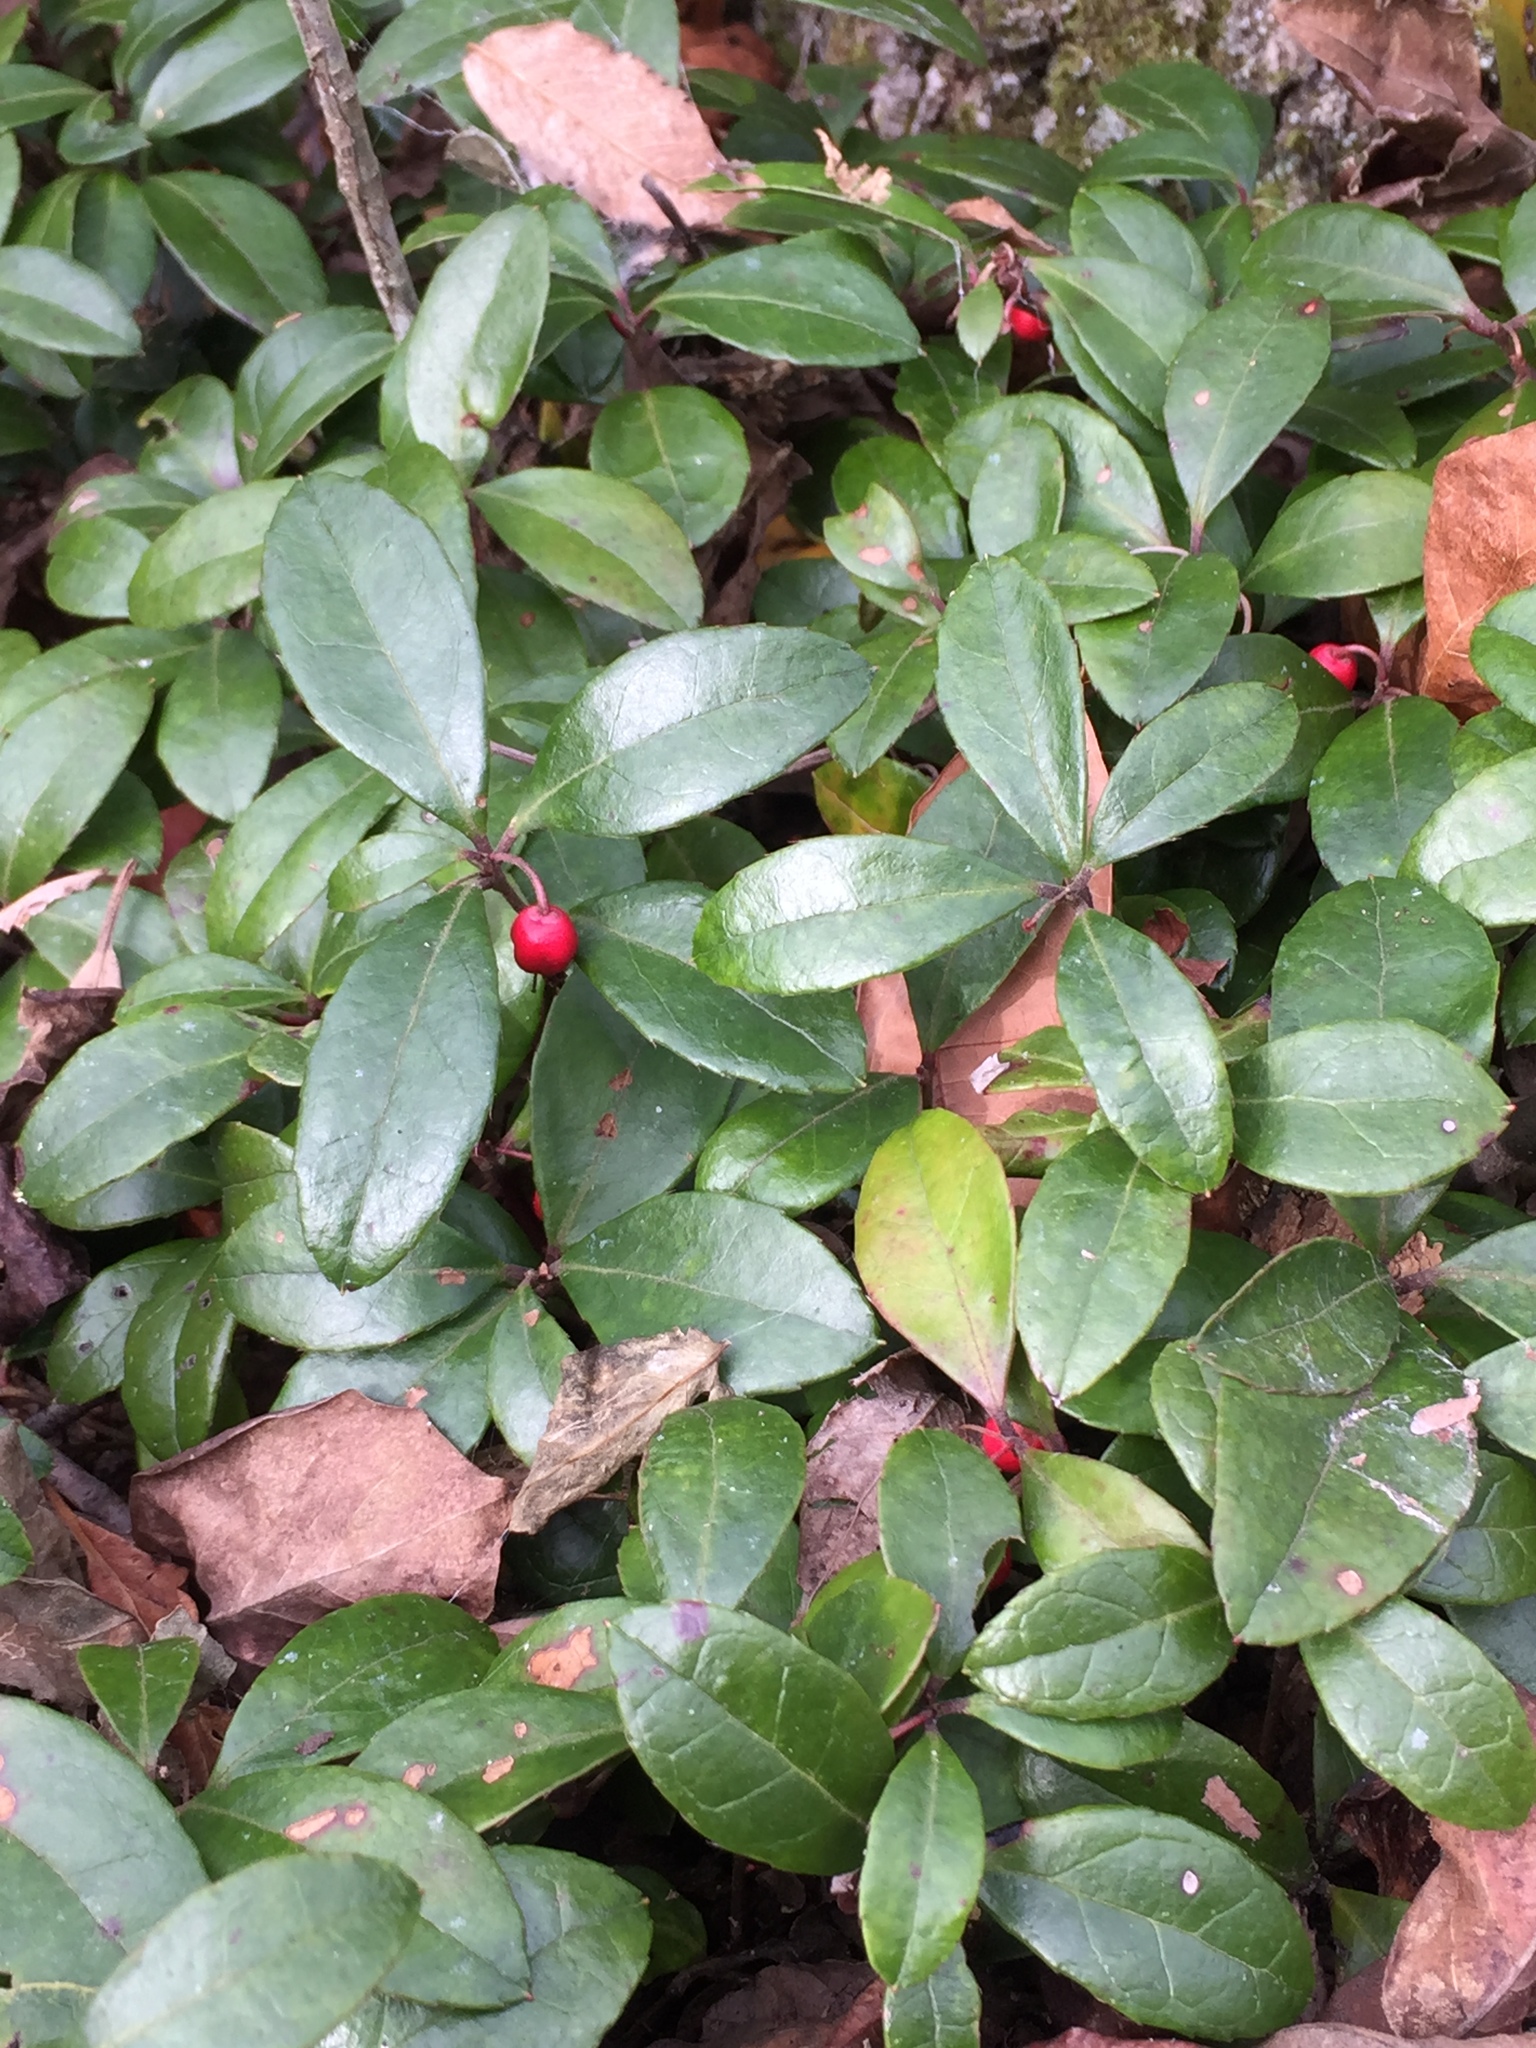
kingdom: Plantae
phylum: Tracheophyta
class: Magnoliopsida
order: Ericales
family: Ericaceae
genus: Gaultheria
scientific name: Gaultheria procumbens
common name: Checkerberry
